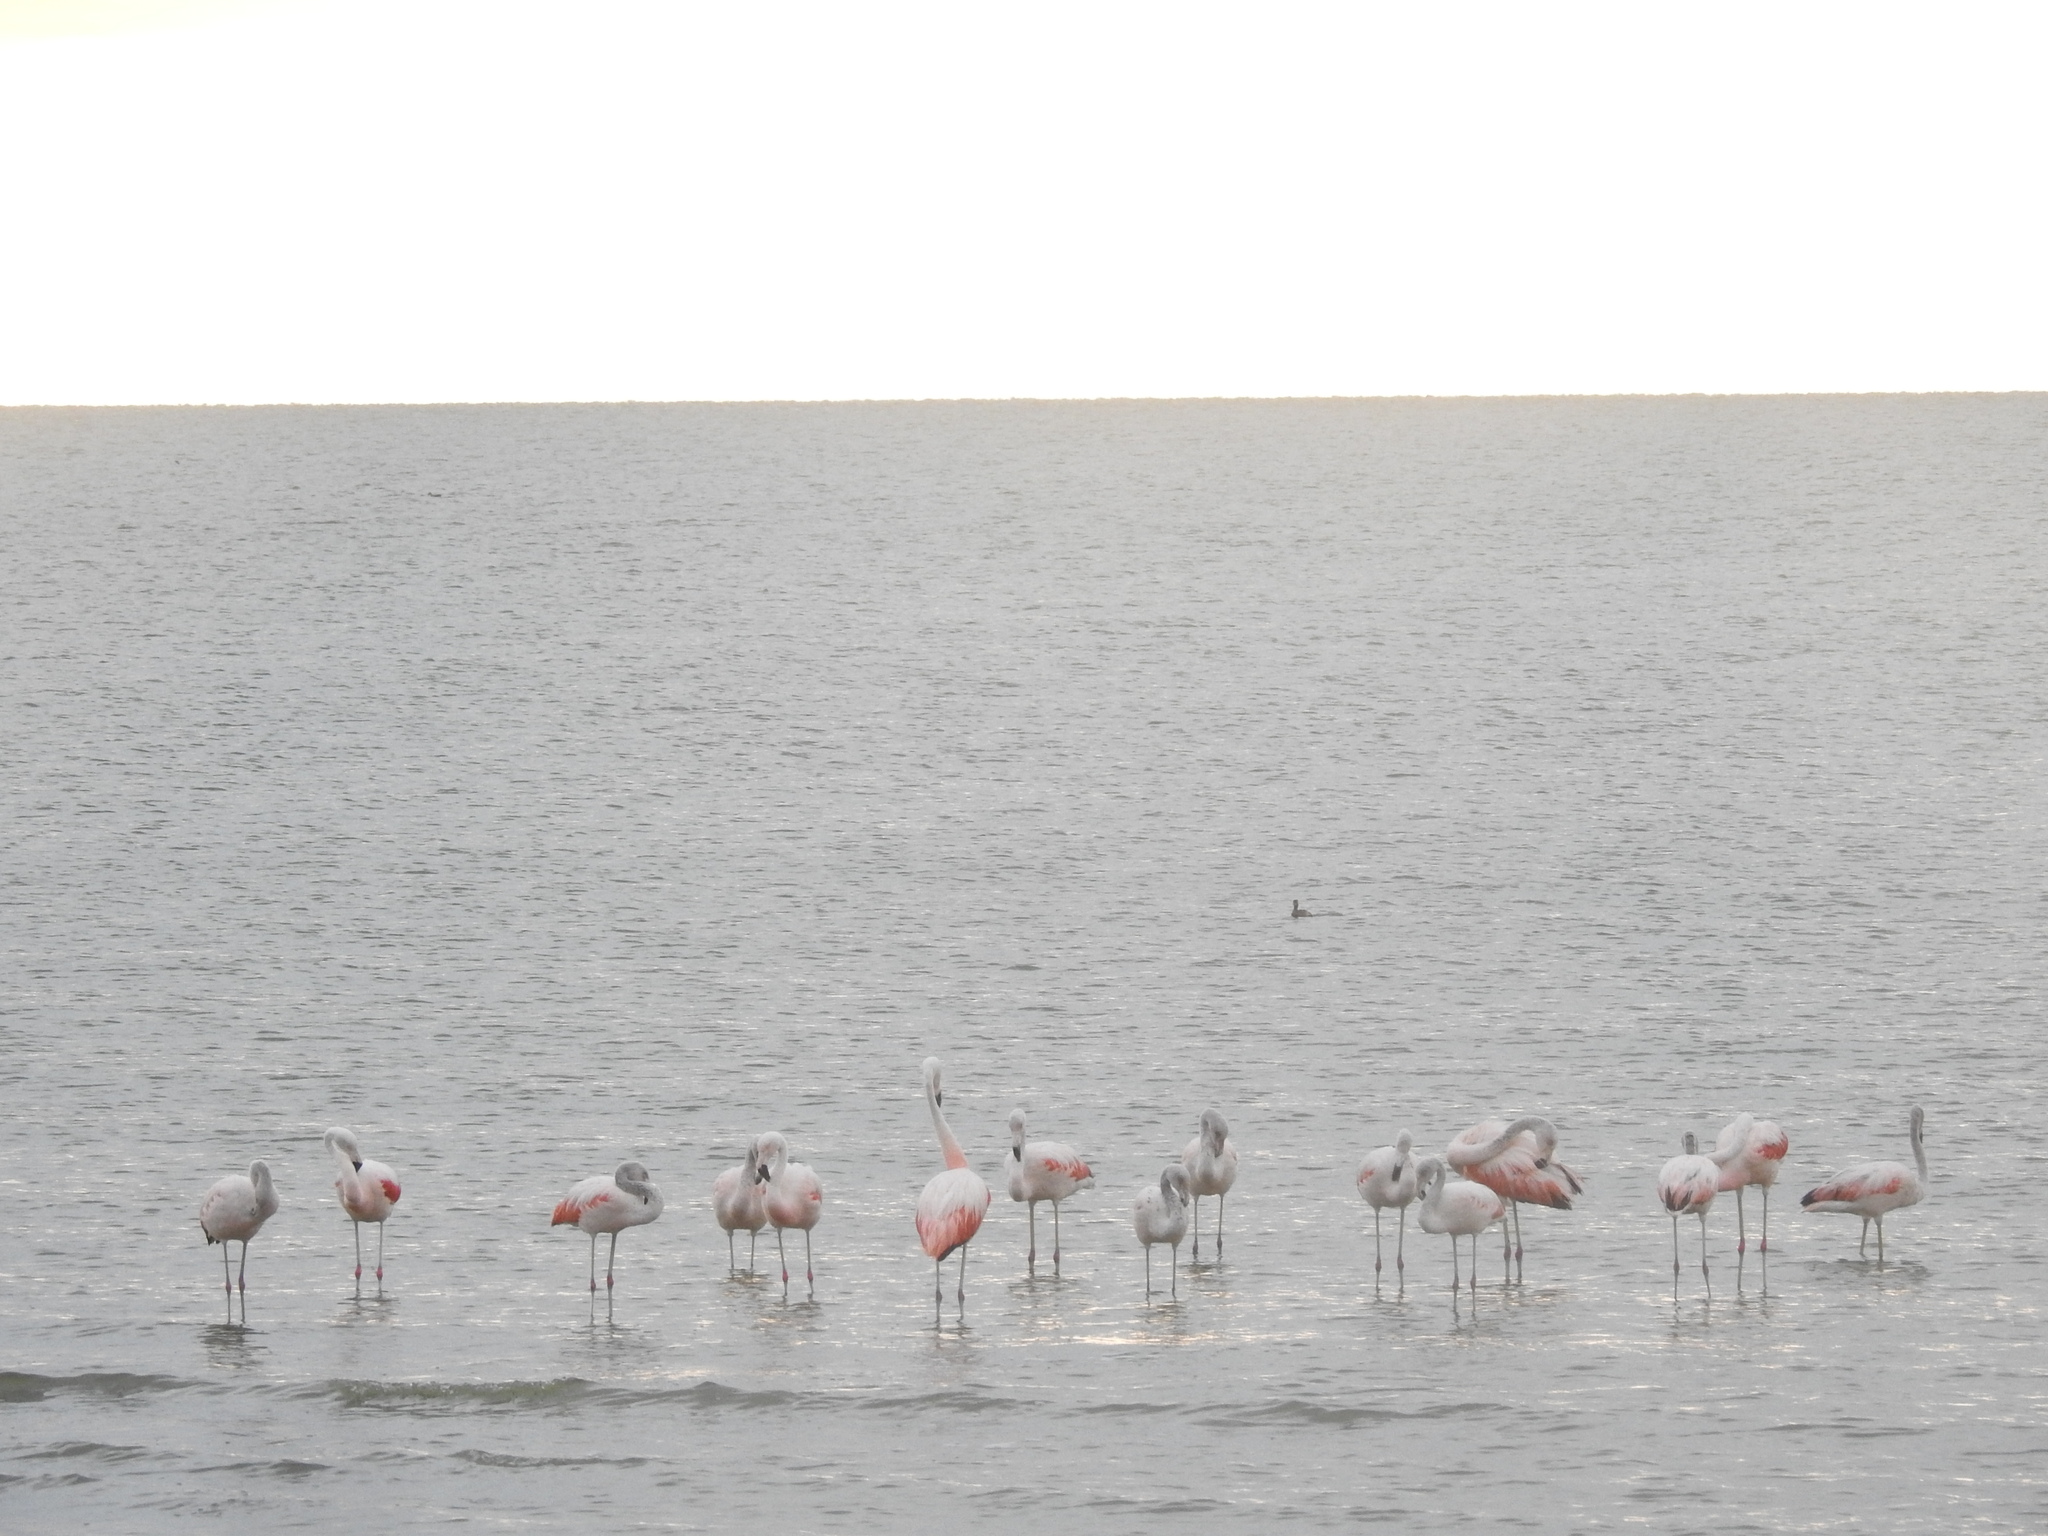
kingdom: Animalia
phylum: Chordata
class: Aves
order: Phoenicopteriformes
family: Phoenicopteridae
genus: Phoenicopterus
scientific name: Phoenicopterus chilensis
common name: Chilean flamingo
